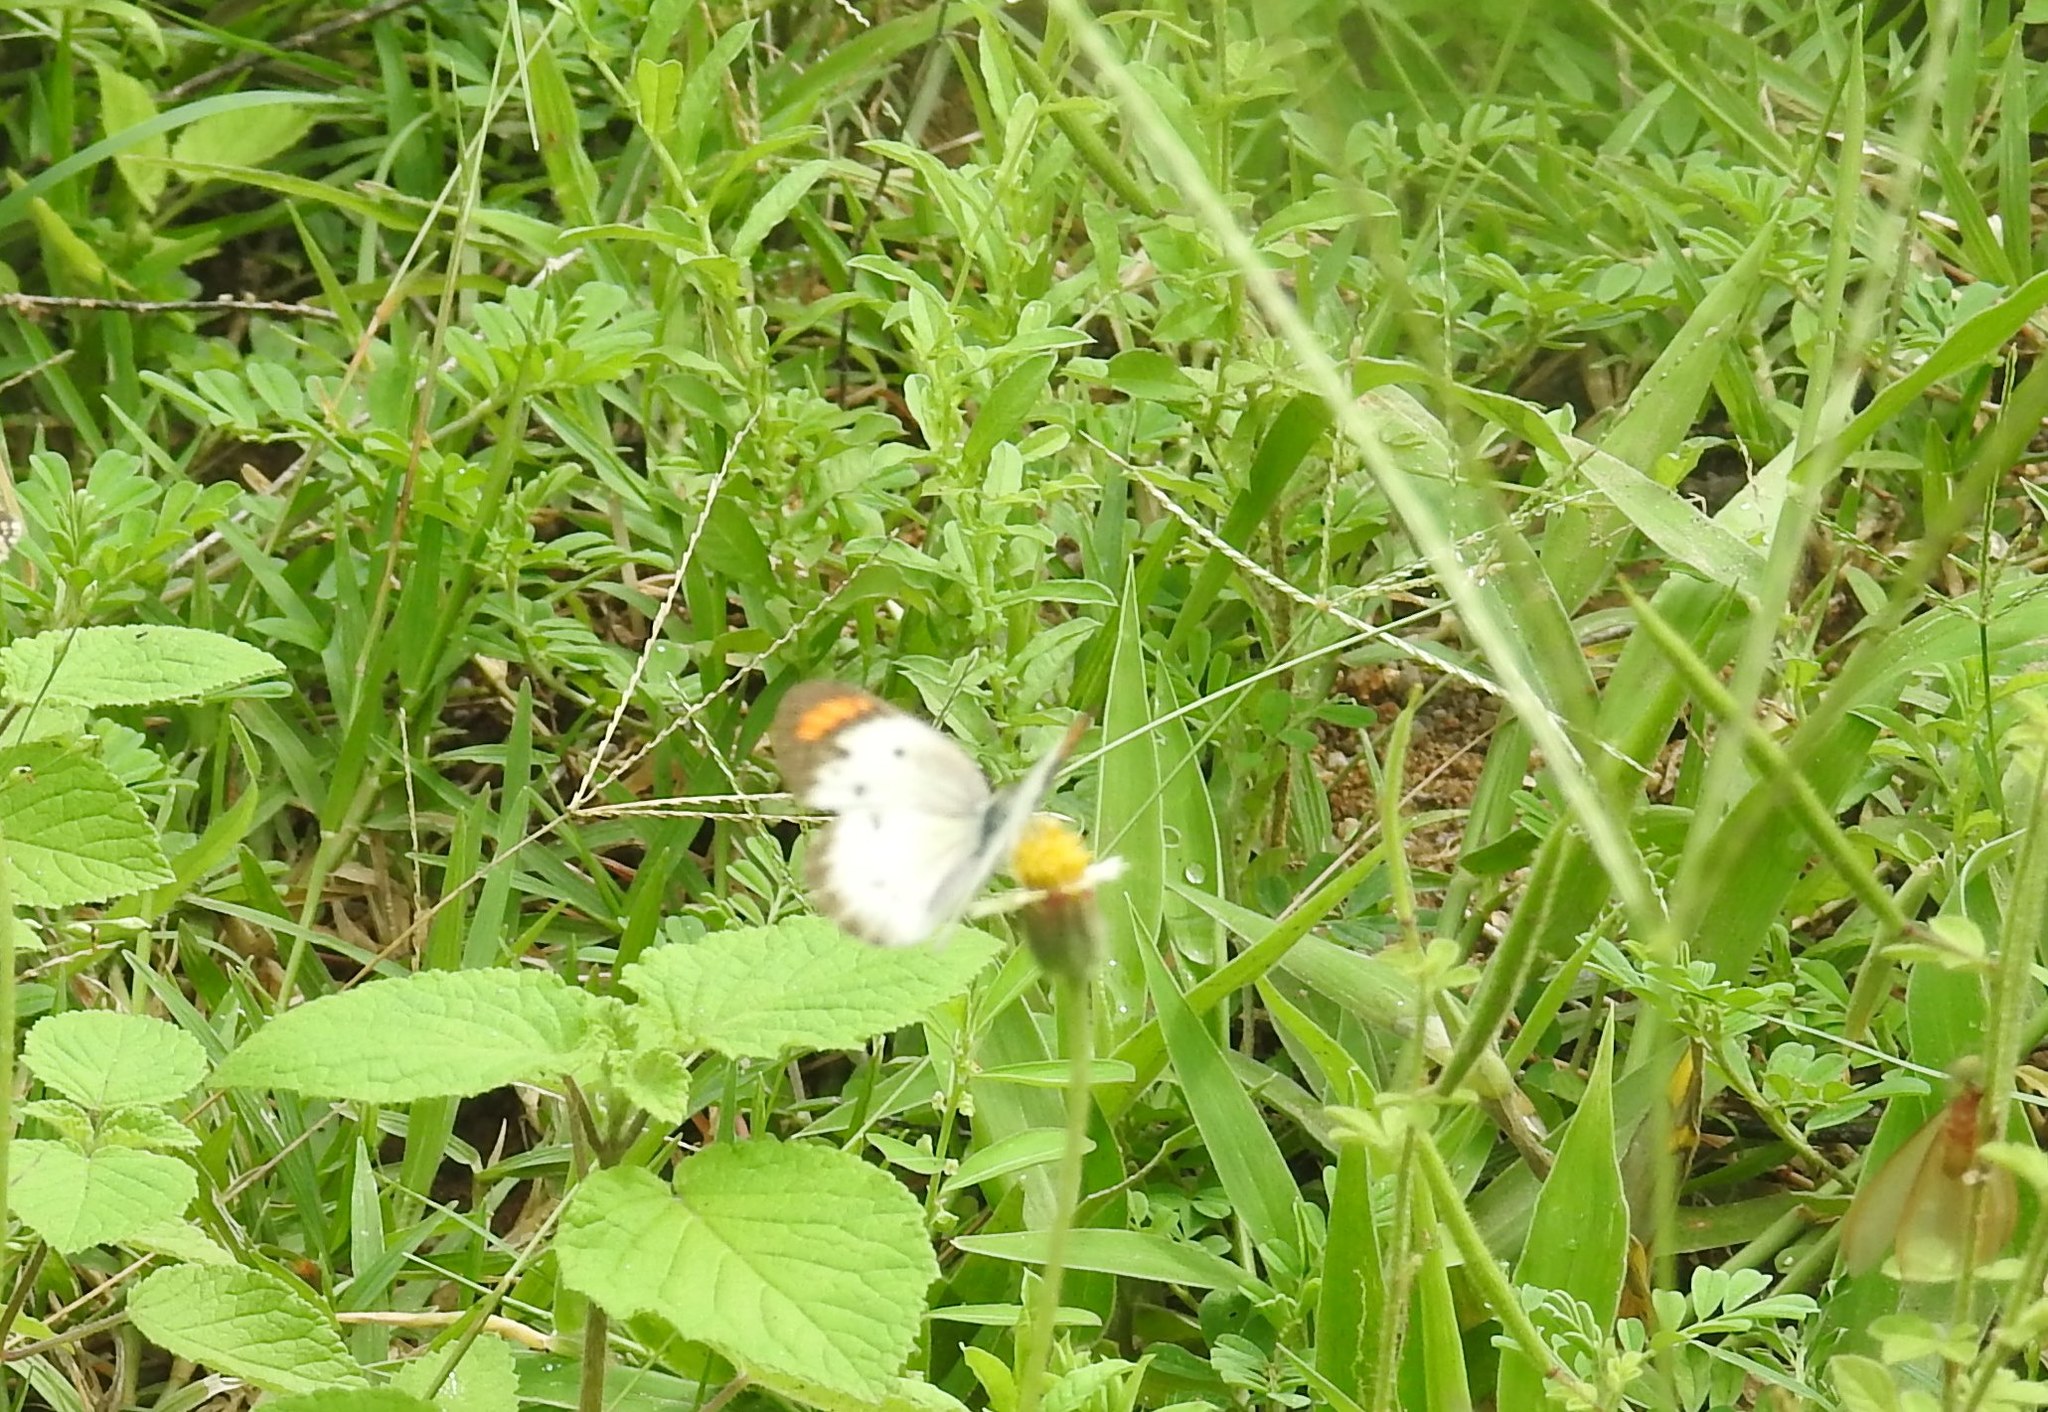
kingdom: Animalia
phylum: Arthropoda
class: Insecta
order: Lepidoptera
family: Pieridae
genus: Colotis
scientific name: Colotis etrida
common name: Little orange tip
